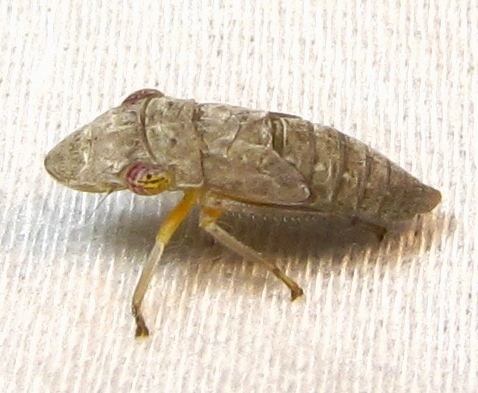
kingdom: Animalia
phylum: Arthropoda
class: Insecta
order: Hemiptera
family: Cicadellidae
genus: Homalodisca
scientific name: Homalodisca vitripennis
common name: Glassy-winged sharpshooter
